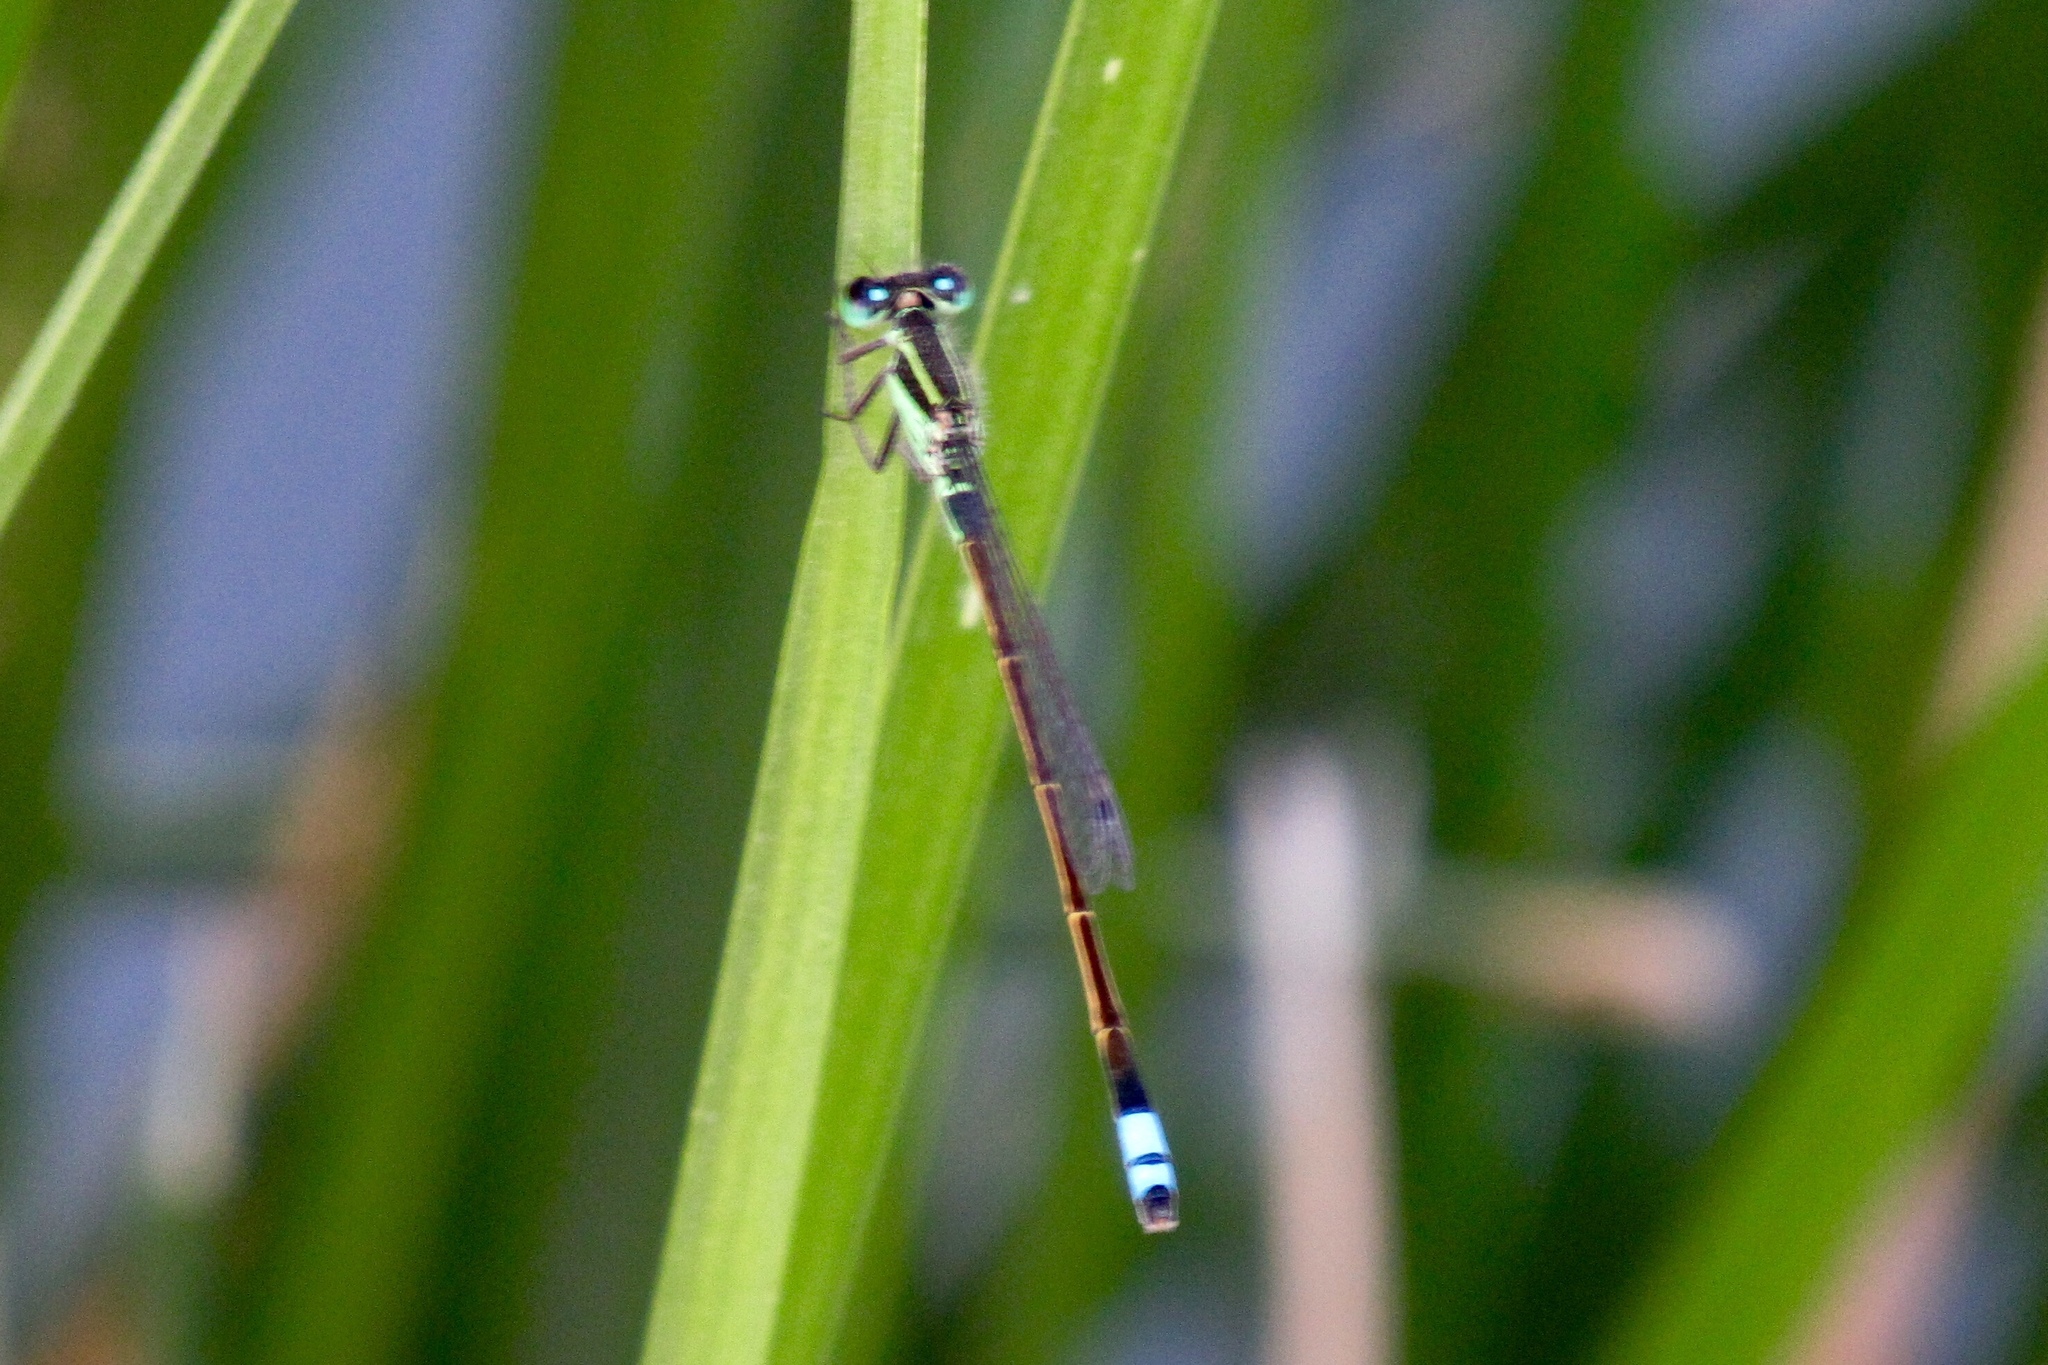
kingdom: Animalia
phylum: Arthropoda
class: Insecta
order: Odonata
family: Coenagrionidae
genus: Ischnura
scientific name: Ischnura ramburii
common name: Rambur's forktail
